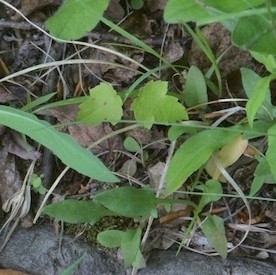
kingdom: Plantae
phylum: Tracheophyta
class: Magnoliopsida
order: Sapindales
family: Sapindaceae
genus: Acer
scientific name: Acer rubrum
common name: Red maple
